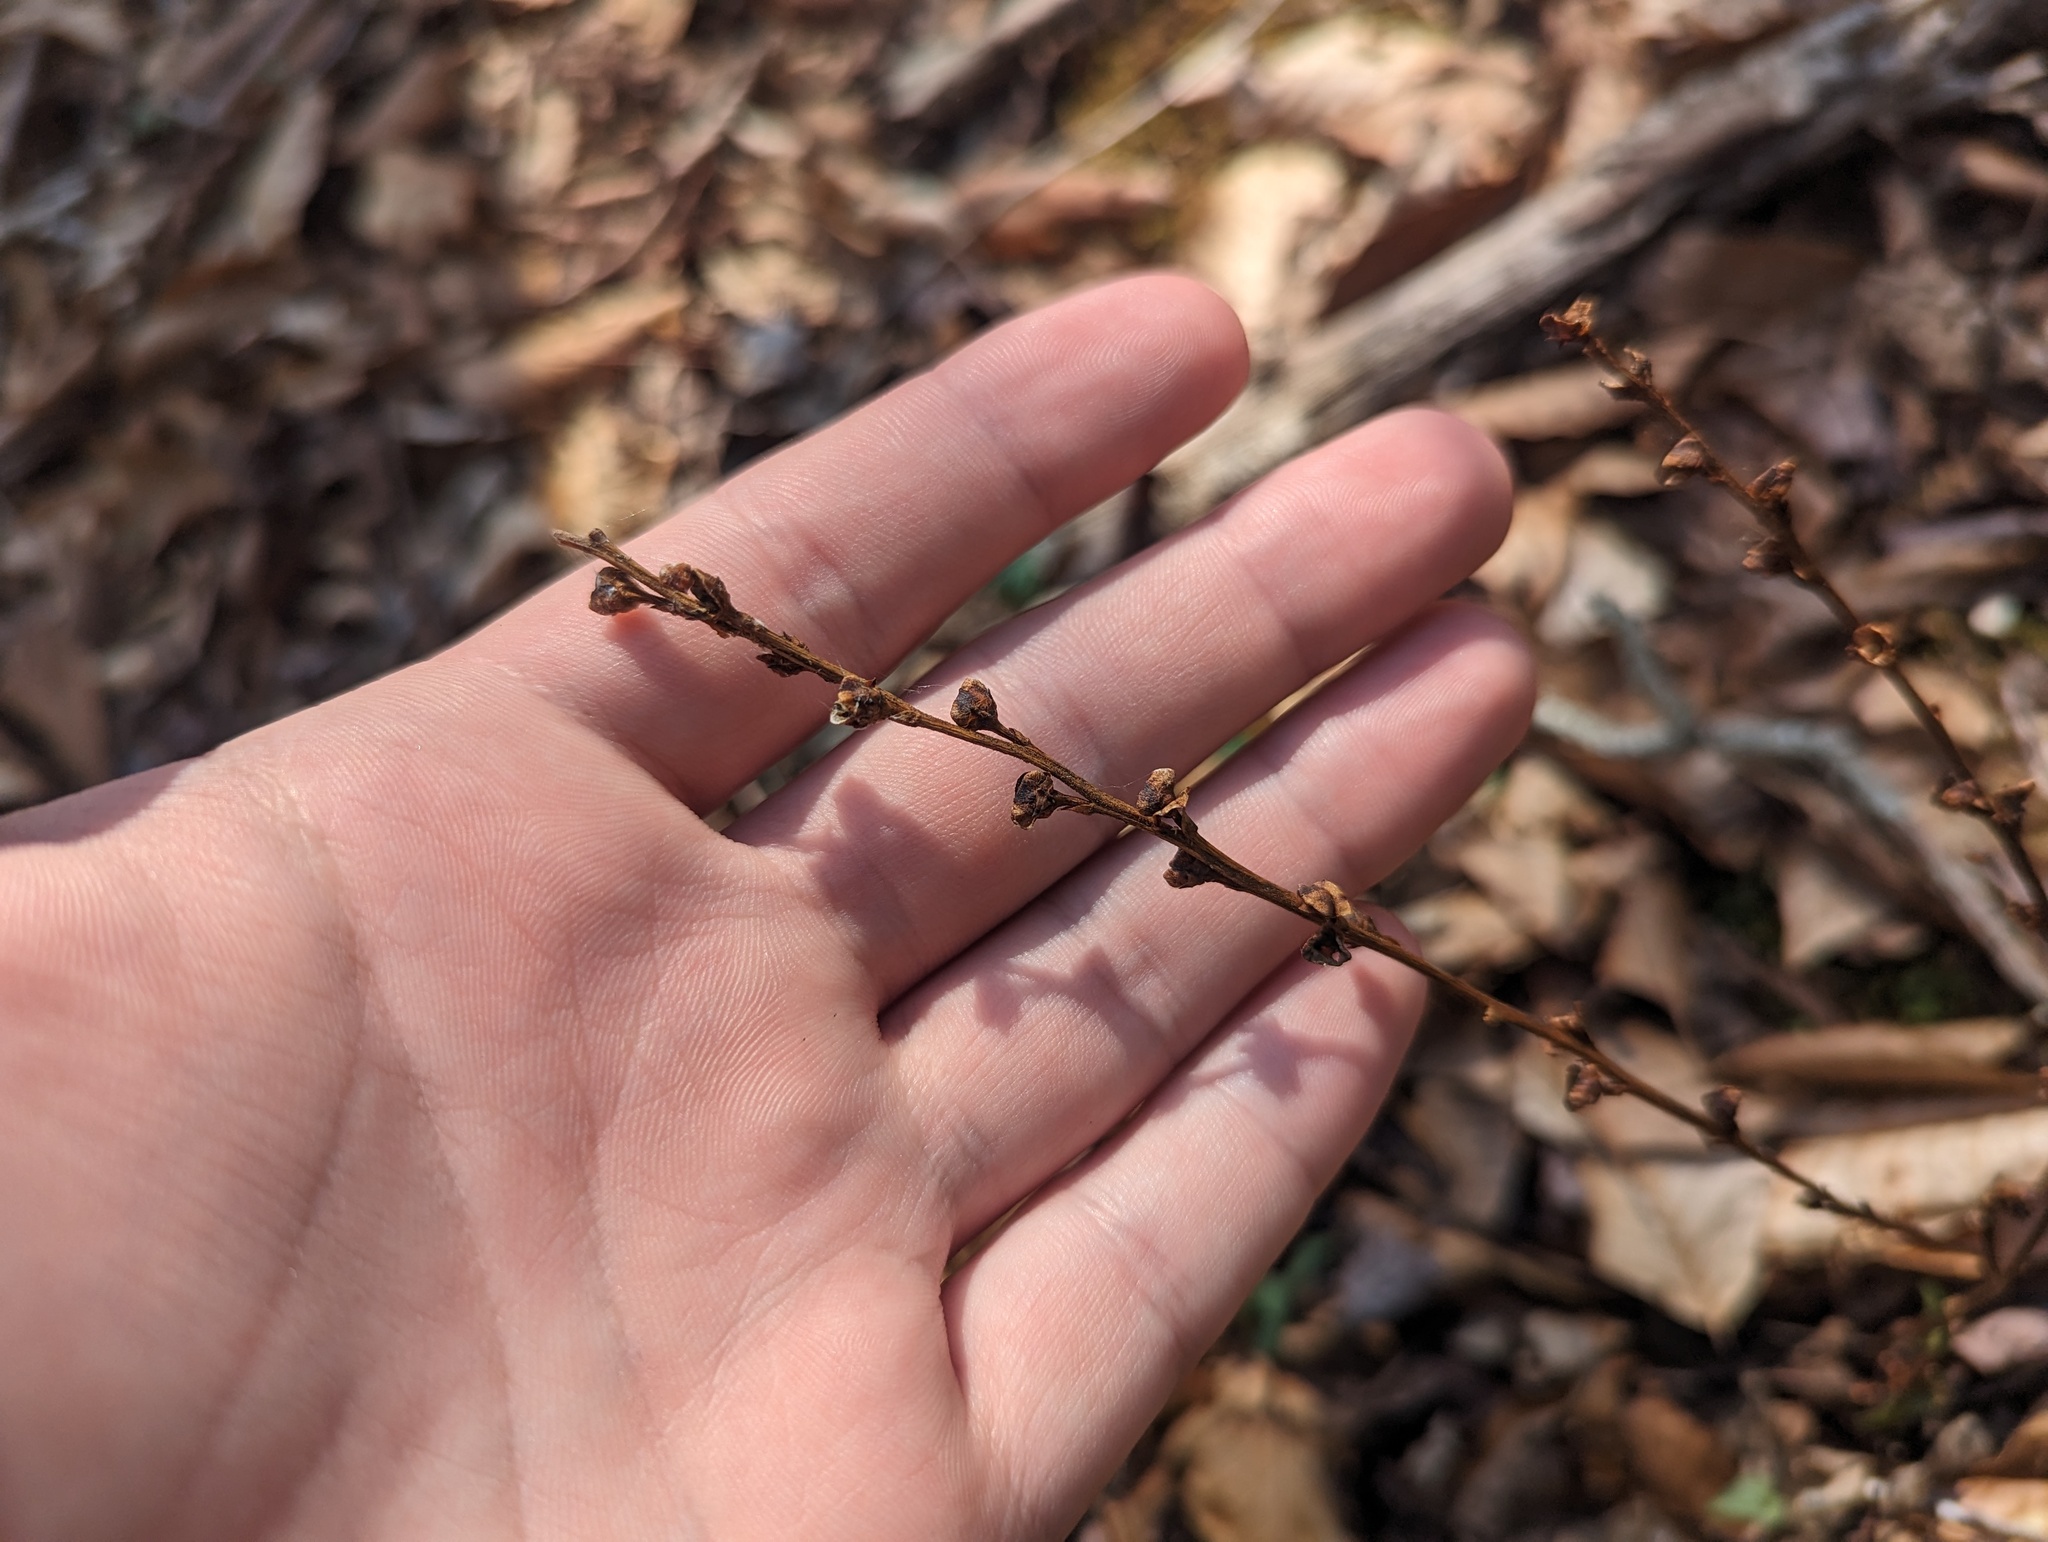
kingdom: Plantae
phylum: Tracheophyta
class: Magnoliopsida
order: Lamiales
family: Orobanchaceae
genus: Epifagus
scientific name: Epifagus virginiana
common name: Beechdrops
